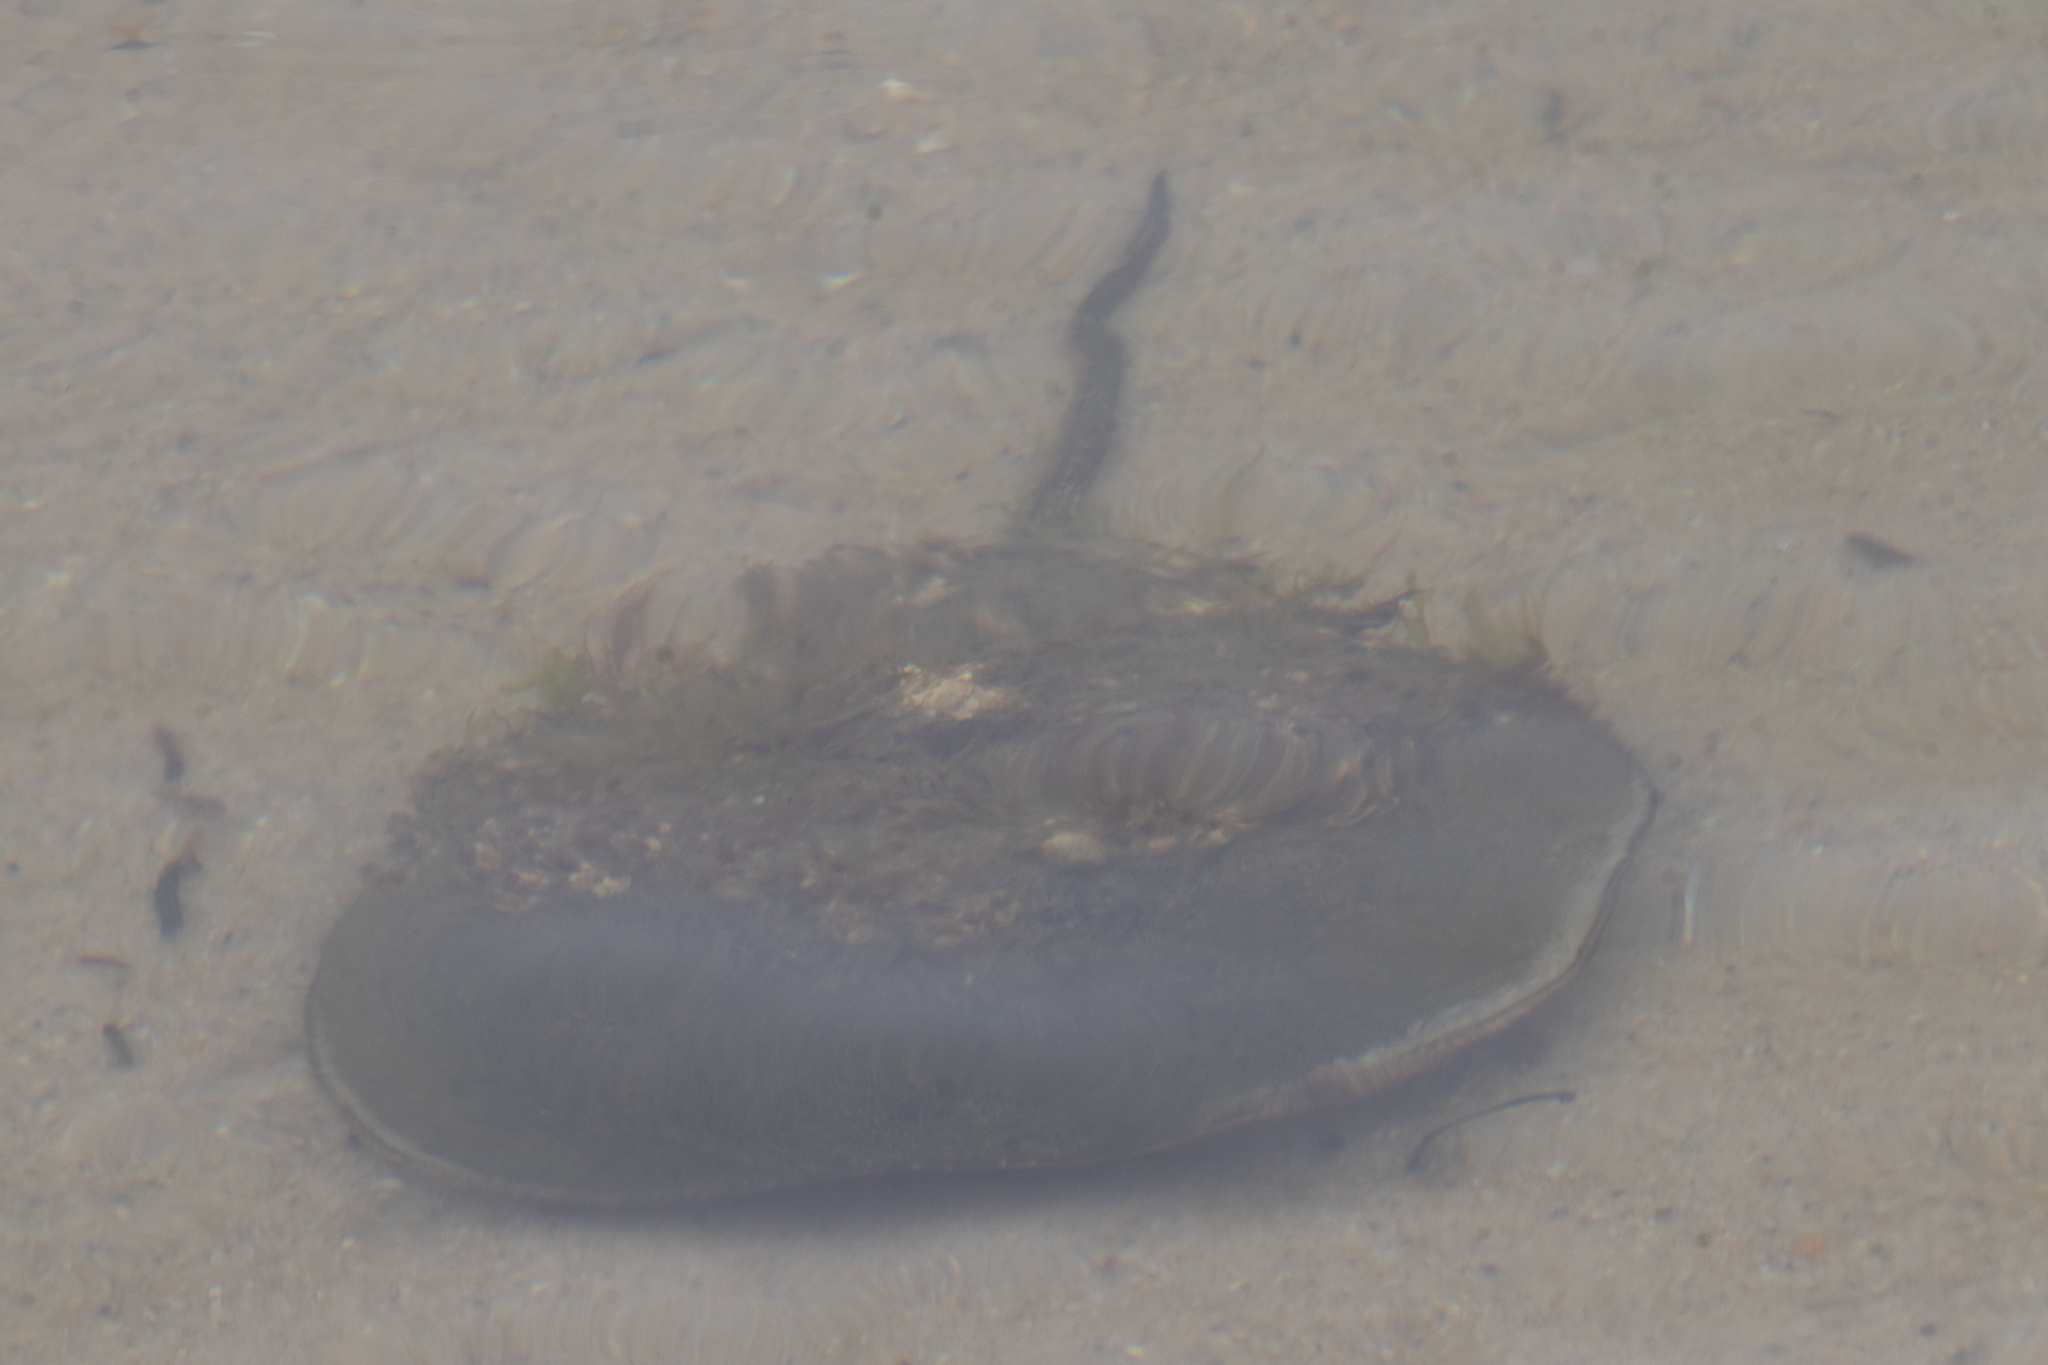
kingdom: Animalia
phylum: Arthropoda
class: Merostomata
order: Xiphosurida
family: Limulidae
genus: Limulus
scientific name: Limulus polyphemus
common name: Horseshoe crab
